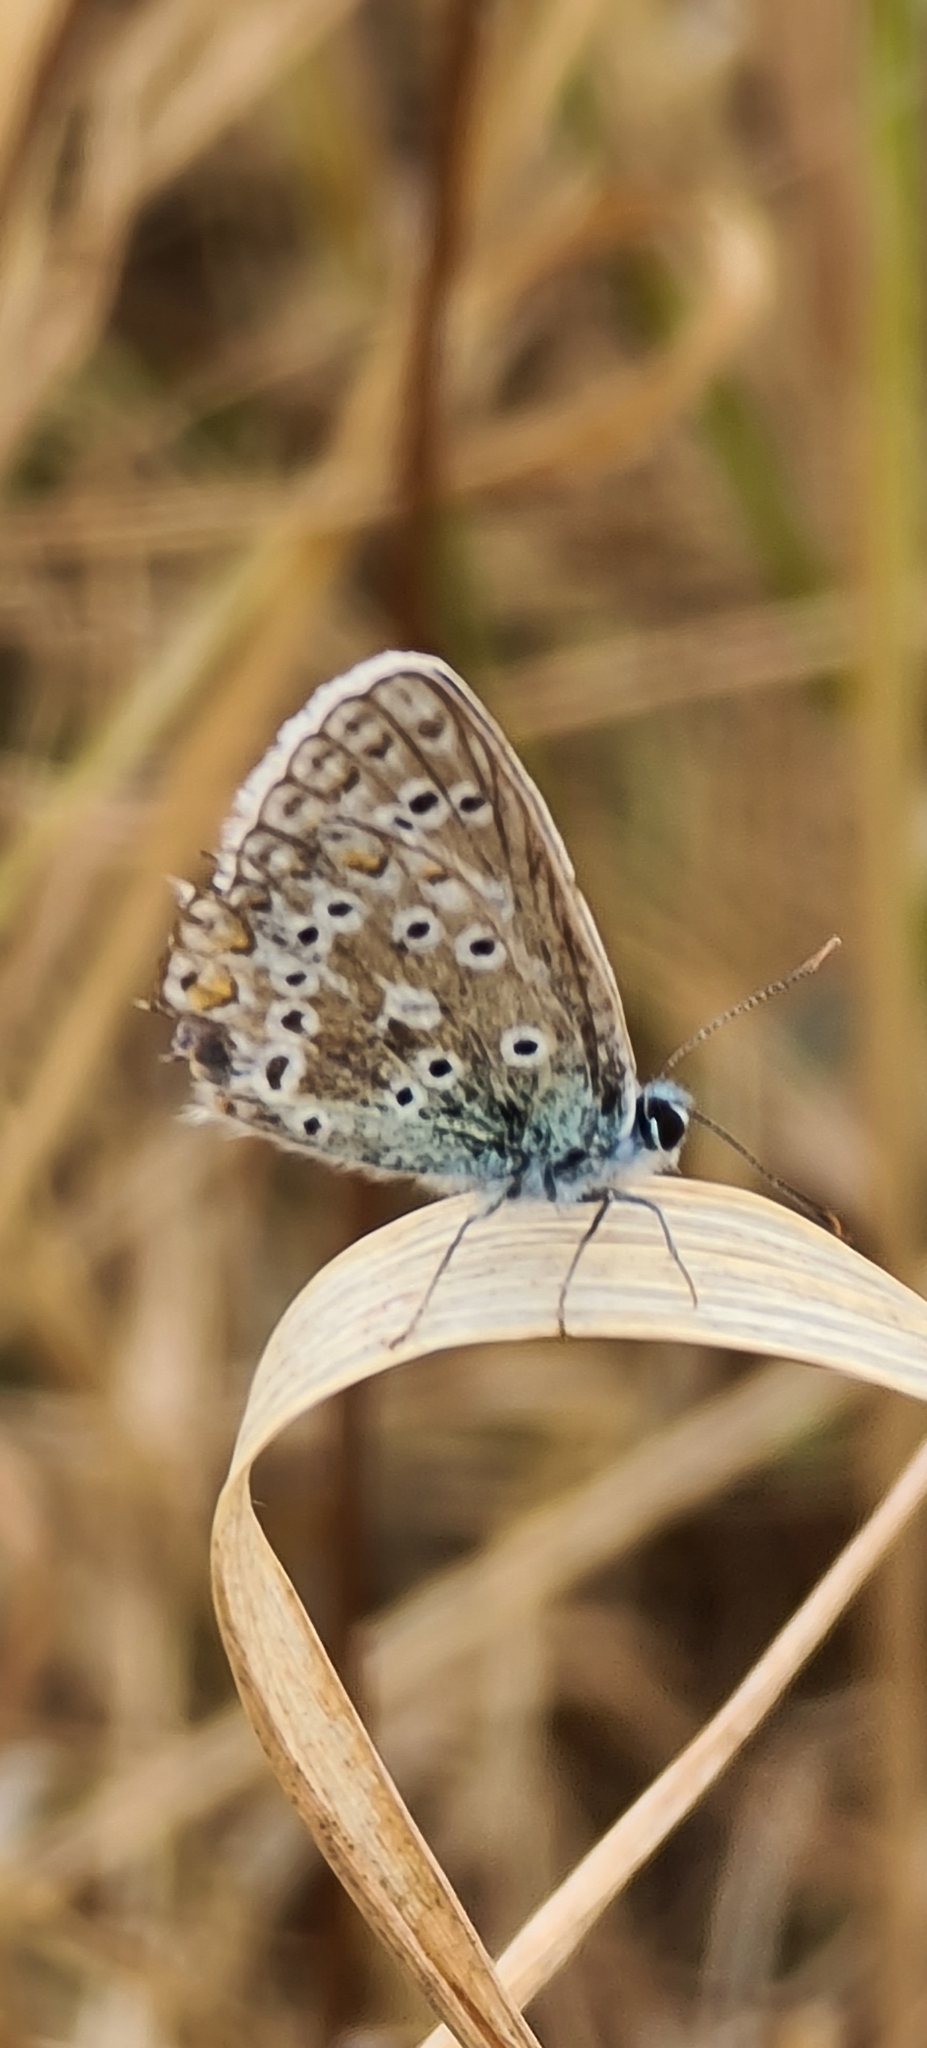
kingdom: Animalia
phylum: Arthropoda
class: Insecta
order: Lepidoptera
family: Lycaenidae
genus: Polyommatus
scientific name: Polyommatus icarus
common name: Common blue
